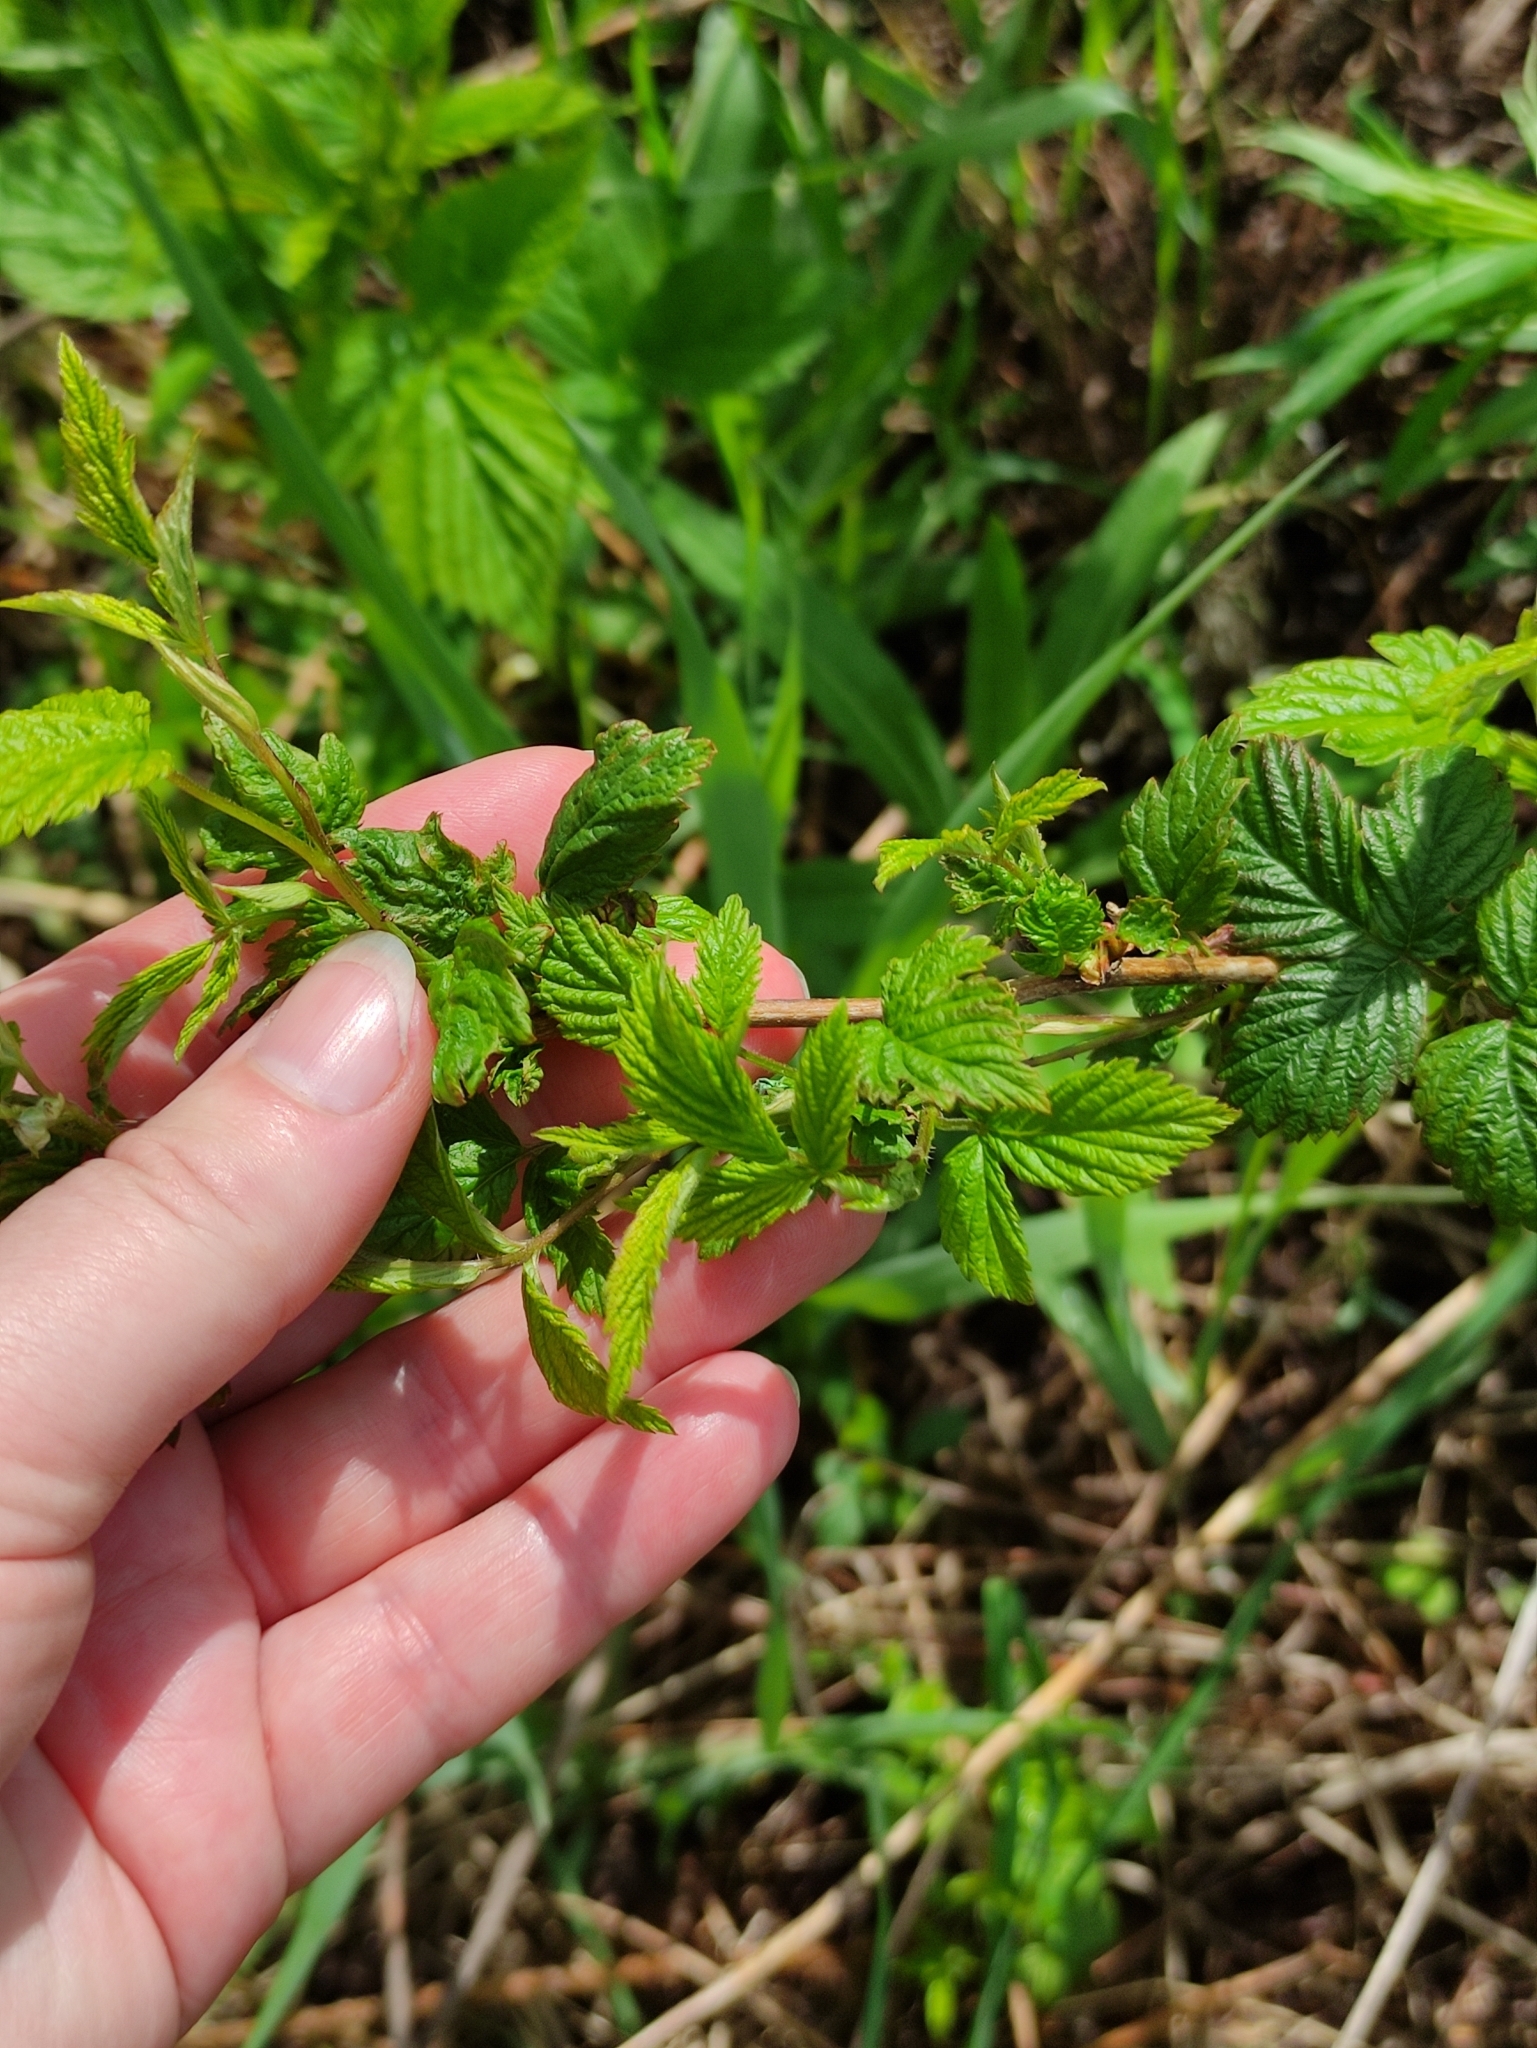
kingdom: Plantae
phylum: Tracheophyta
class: Magnoliopsida
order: Rosales
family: Rosaceae
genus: Rubus
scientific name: Rubus idaeus
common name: Raspberry
